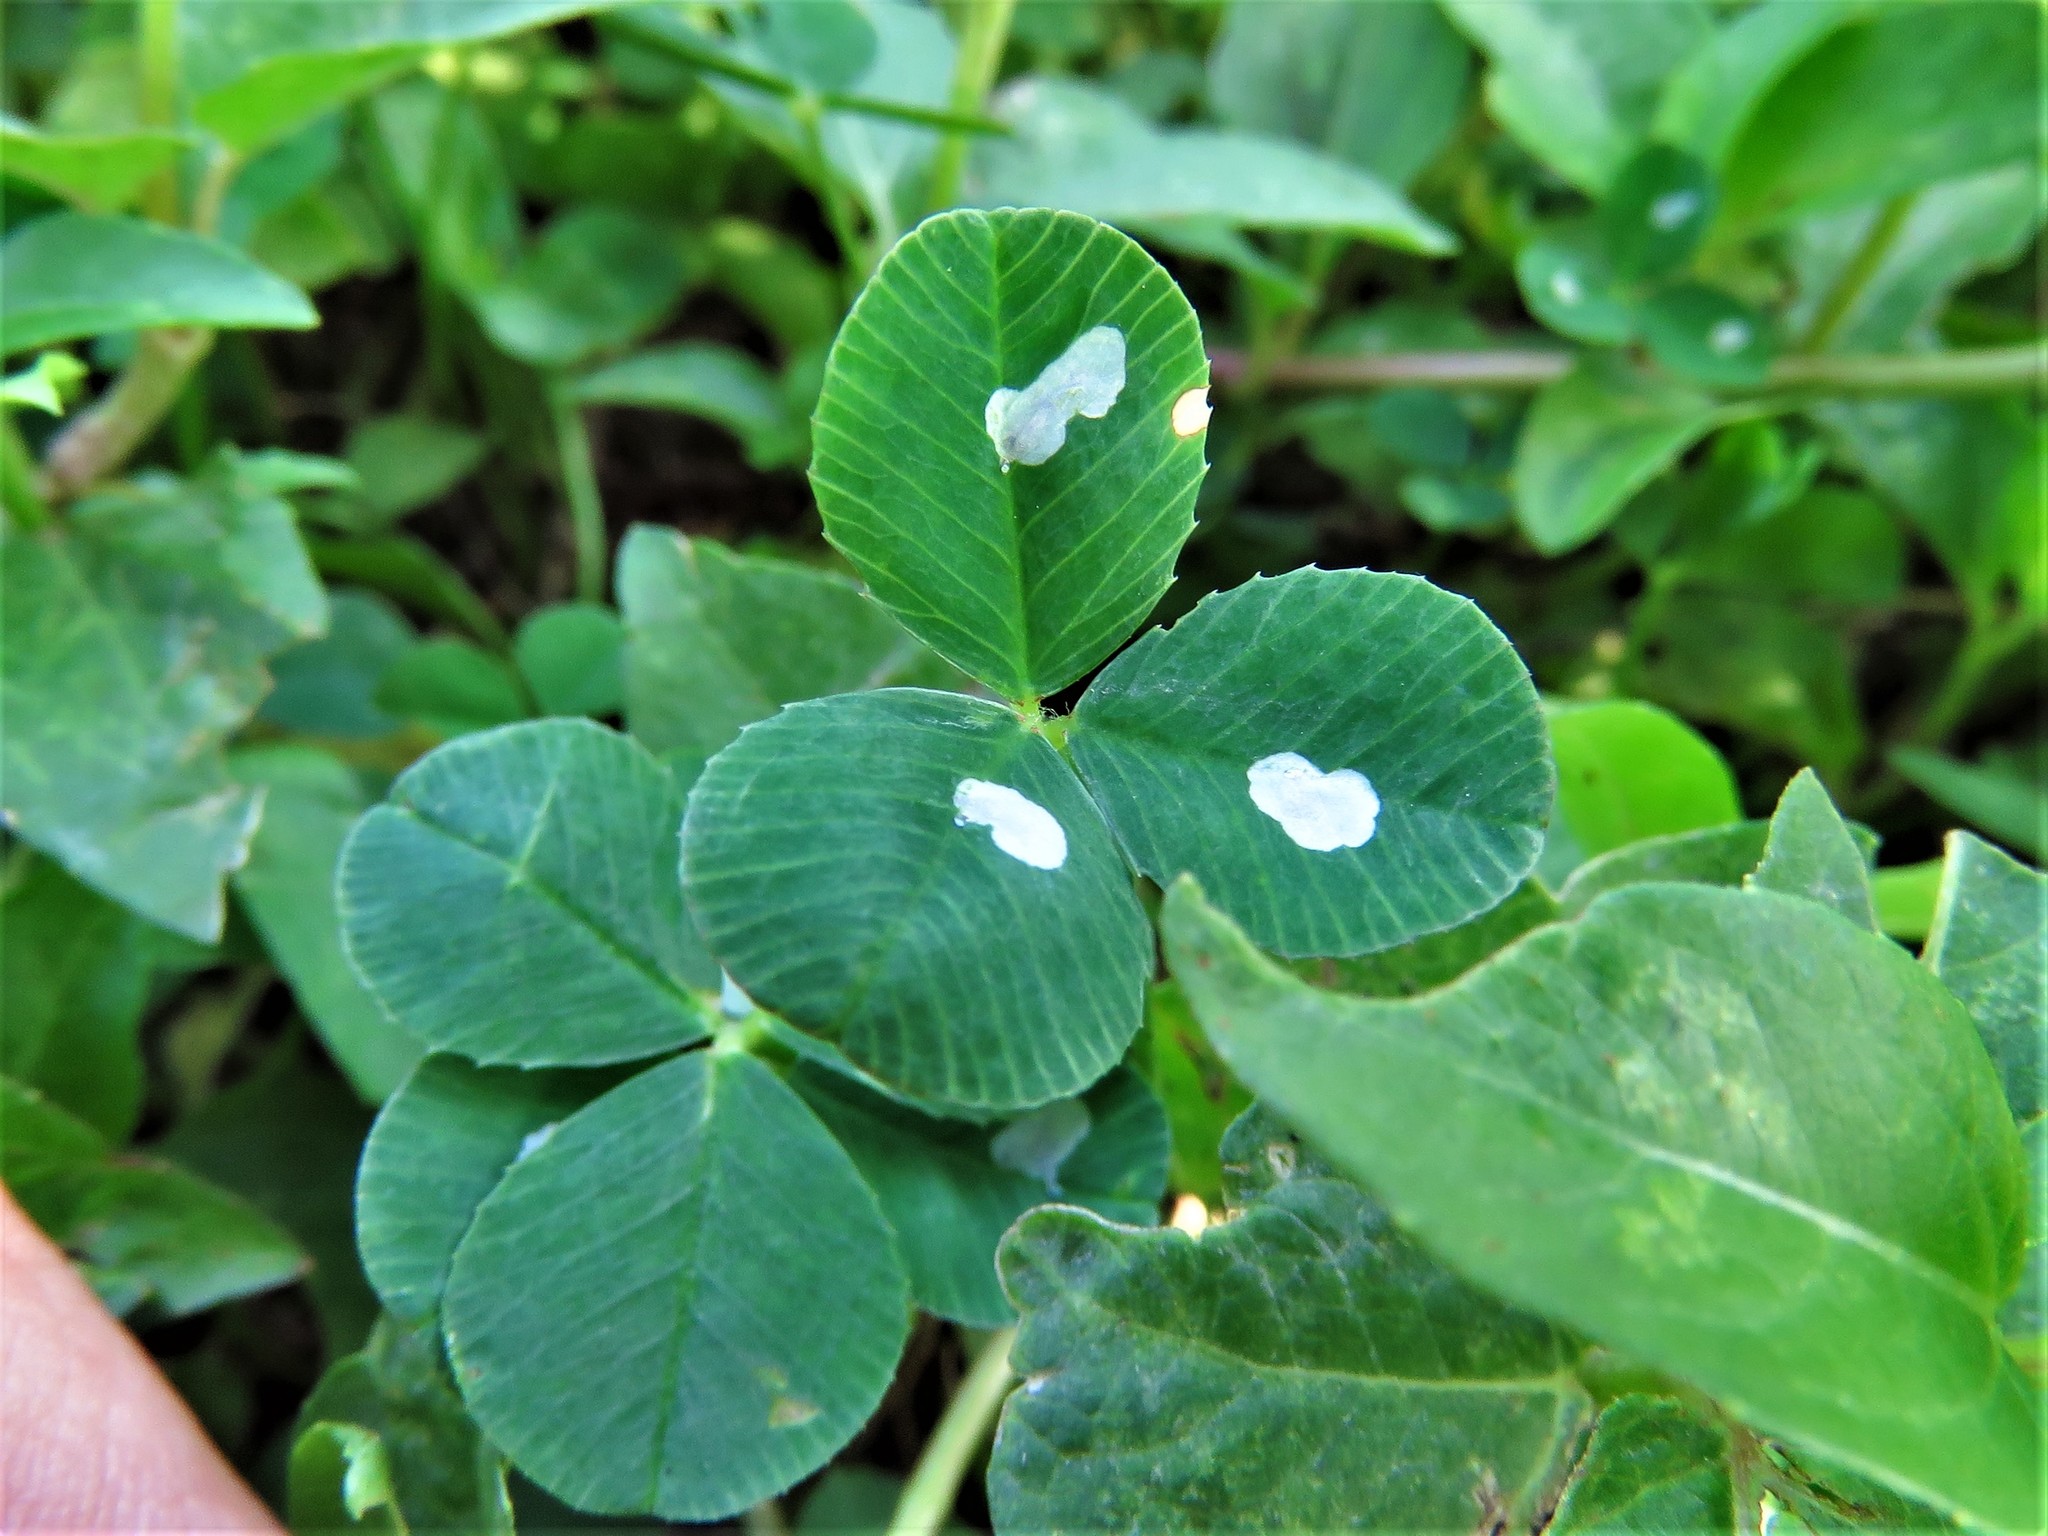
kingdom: Animalia
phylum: Arthropoda
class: Insecta
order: Lepidoptera
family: Gracillariidae
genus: Porphyrosela
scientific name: Porphyrosela minuta
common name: Leaf miner moth
